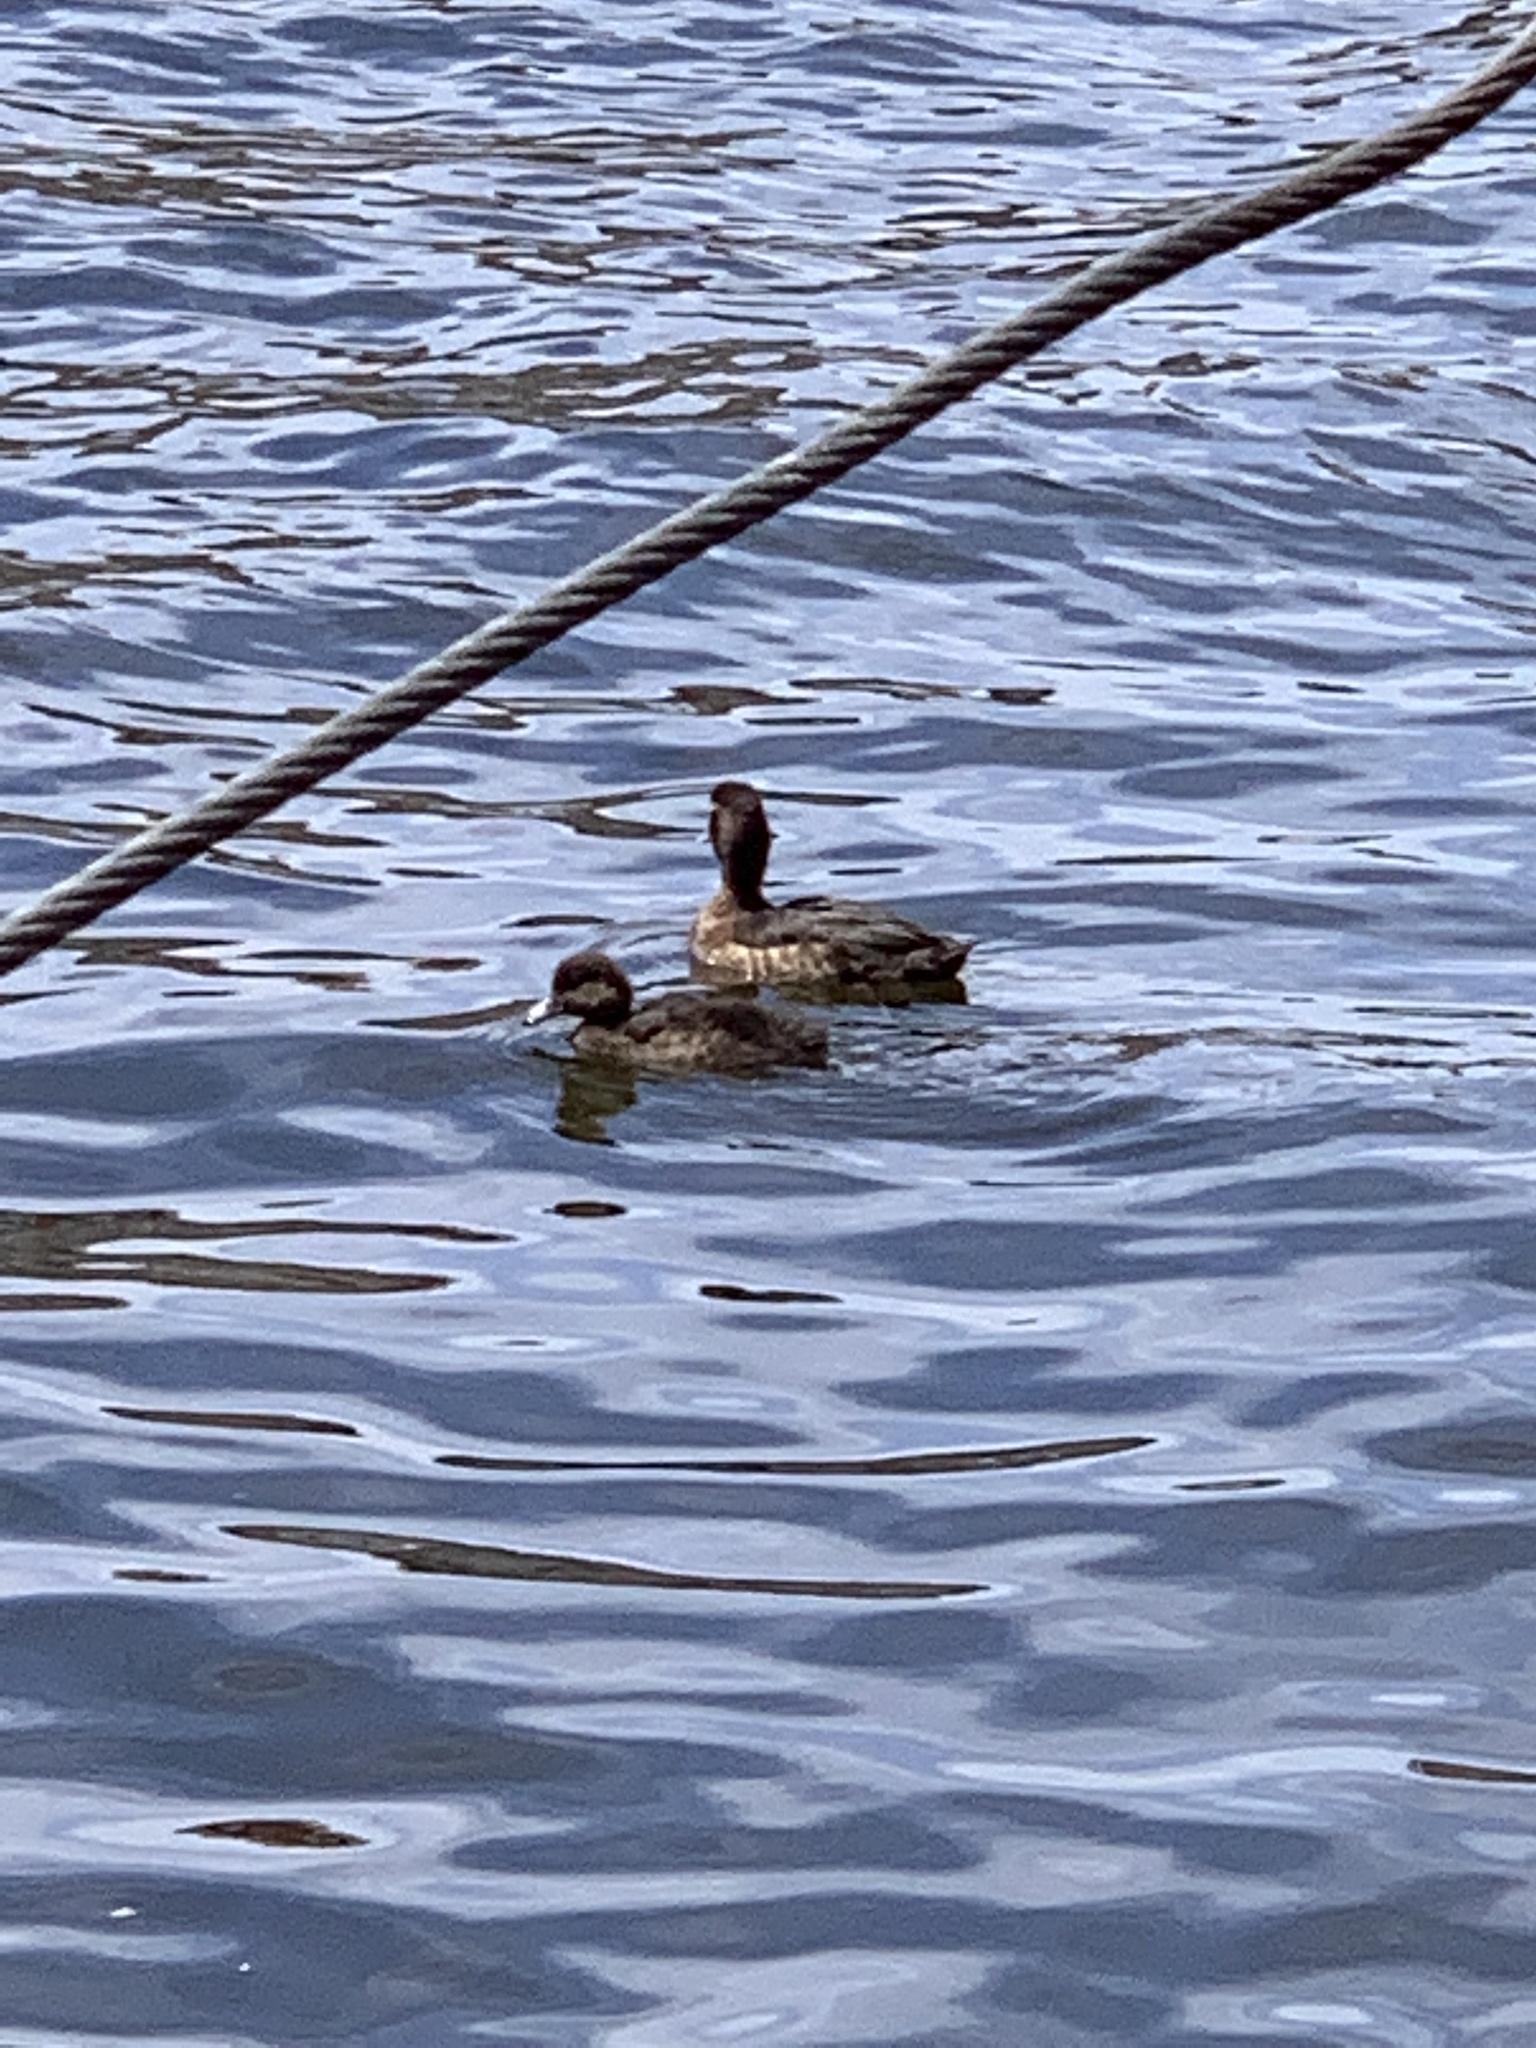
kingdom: Animalia
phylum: Chordata
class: Aves
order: Anseriformes
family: Anatidae
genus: Aythya
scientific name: Aythya fuligula
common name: Tufted duck
